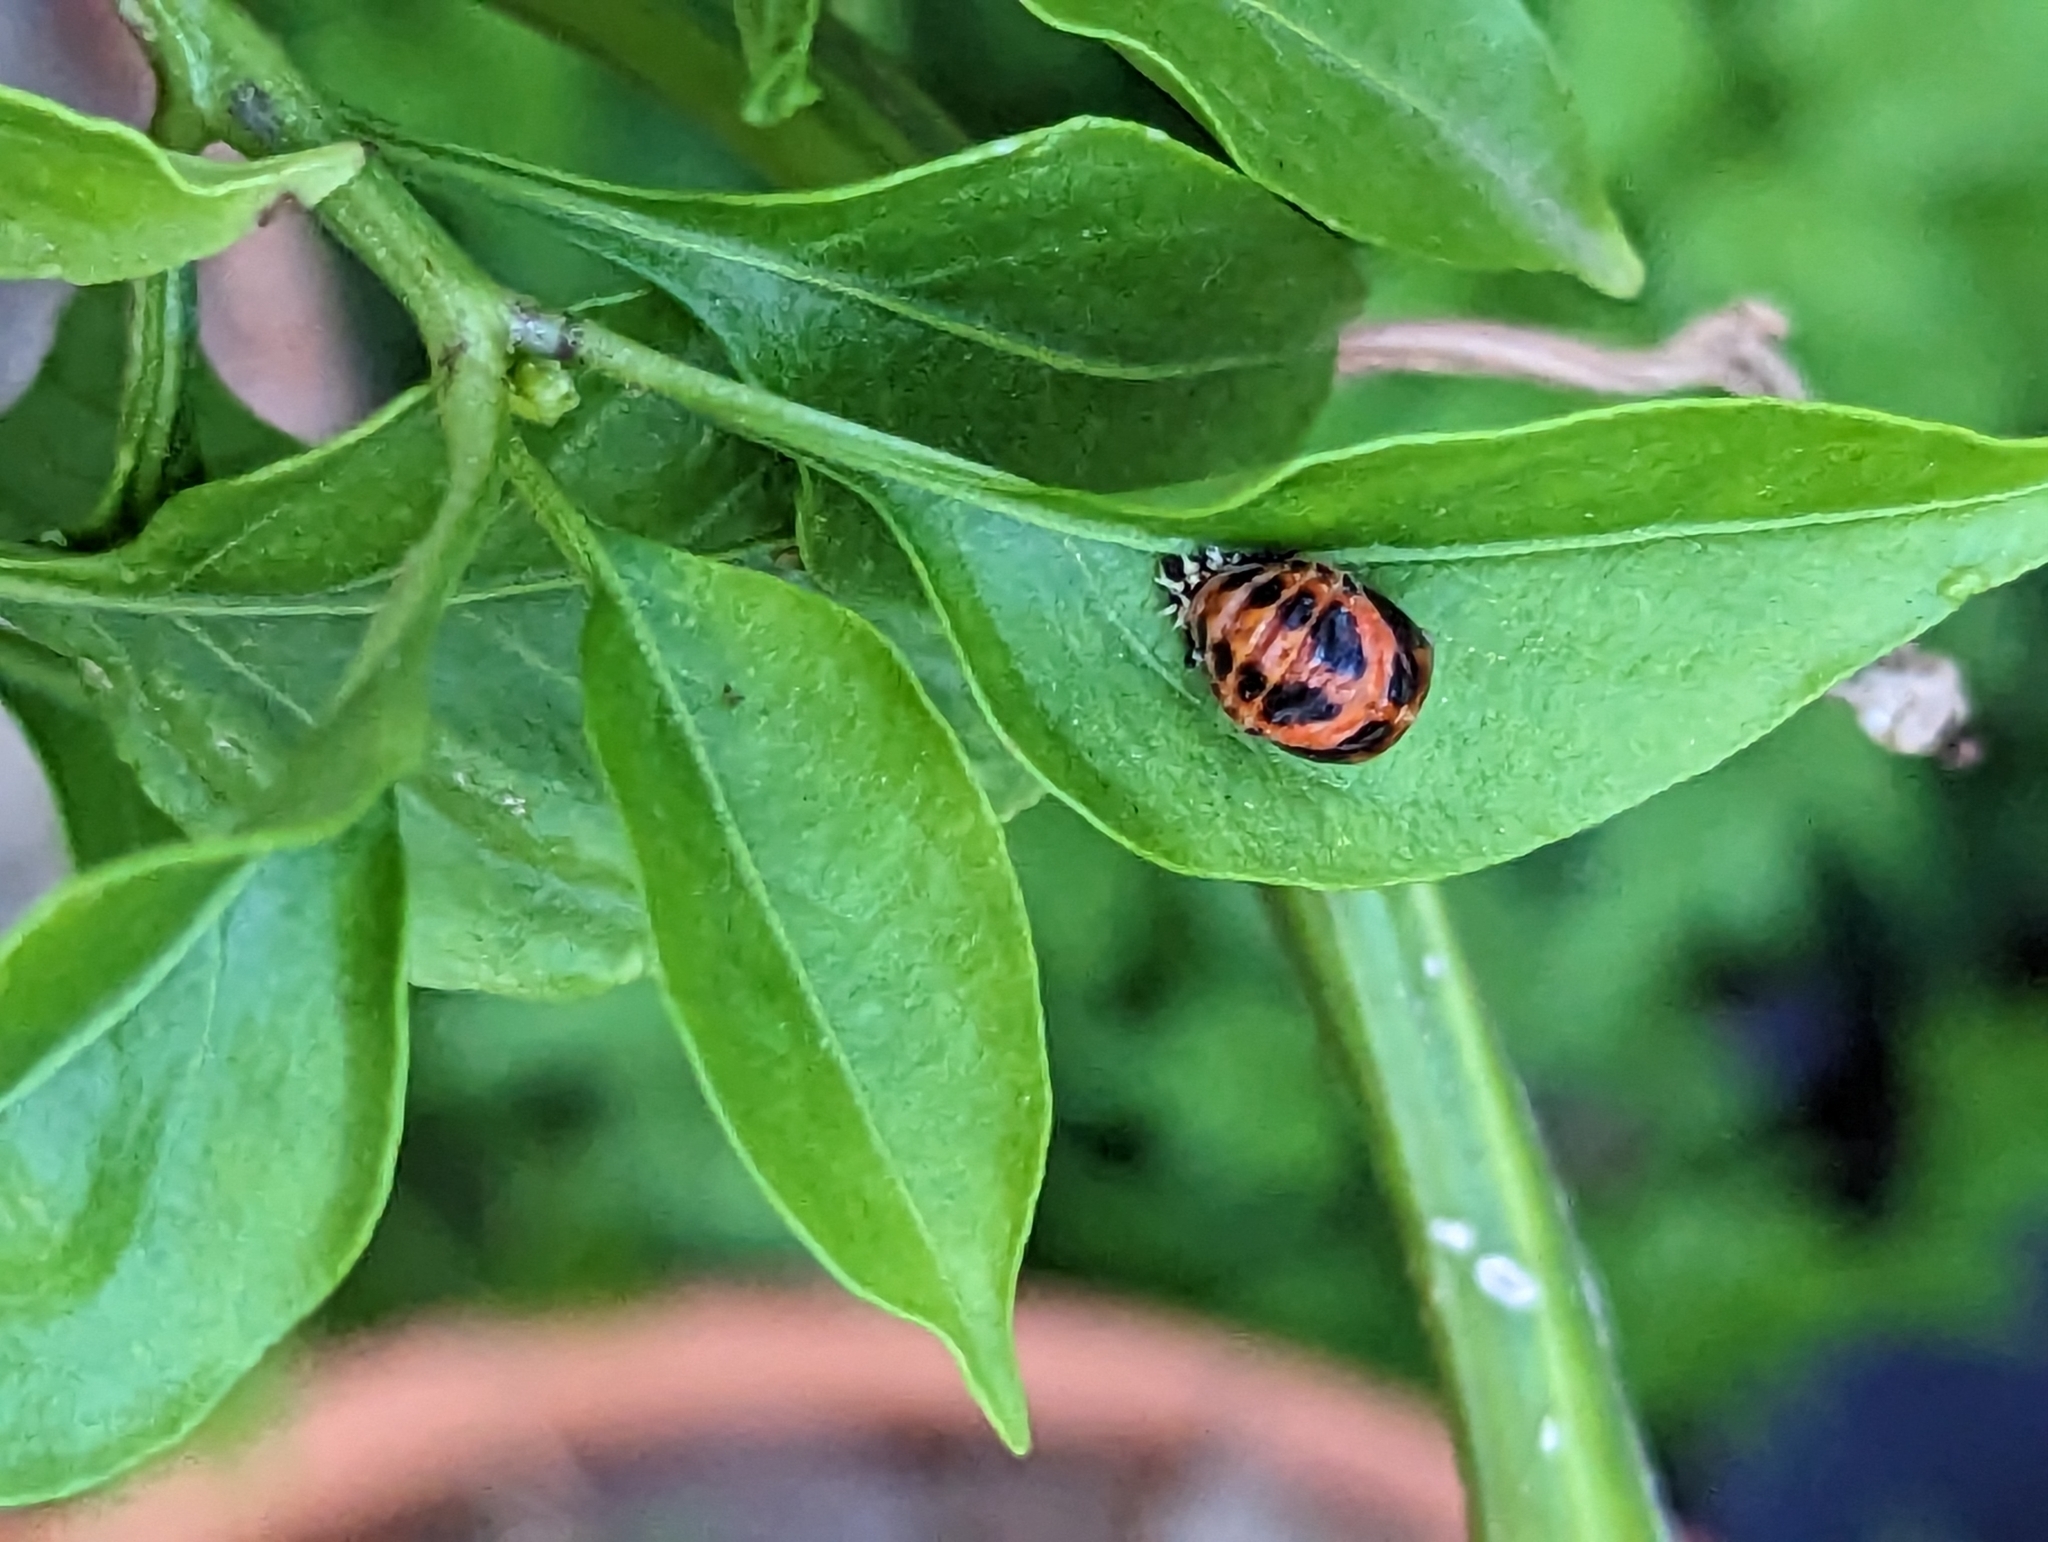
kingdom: Animalia
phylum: Arthropoda
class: Insecta
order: Coleoptera
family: Coccinellidae
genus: Harmonia
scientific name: Harmonia axyridis
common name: Harlequin ladybird
